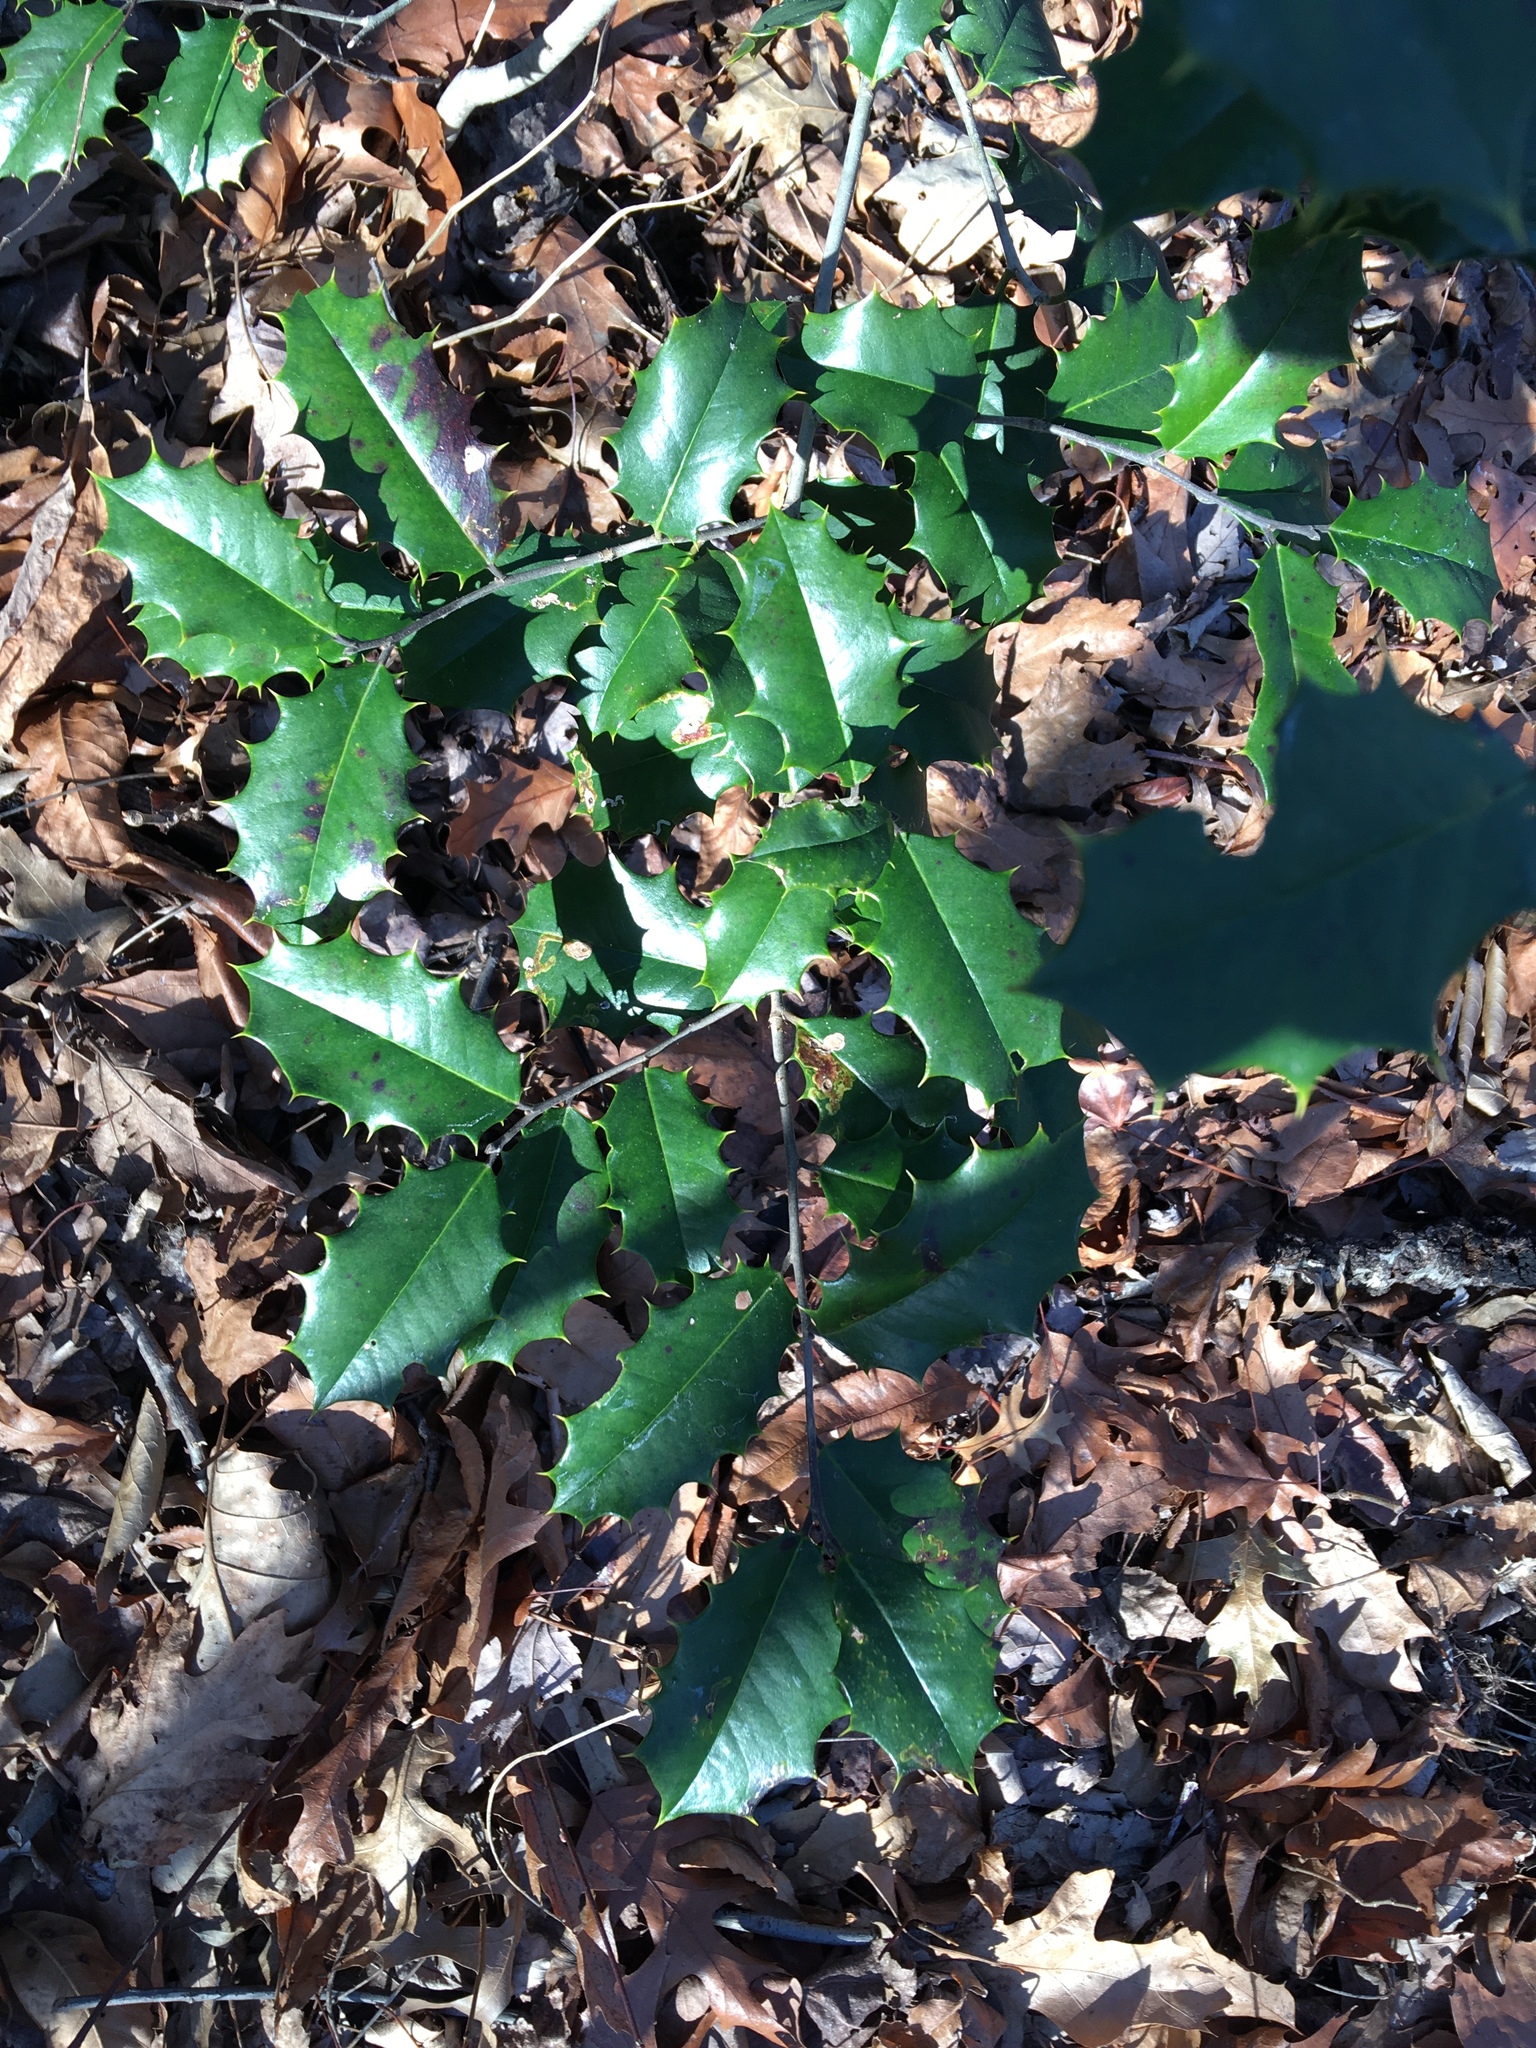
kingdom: Plantae
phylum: Tracheophyta
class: Magnoliopsida
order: Aquifoliales
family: Aquifoliaceae
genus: Ilex
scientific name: Ilex opaca
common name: American holly
